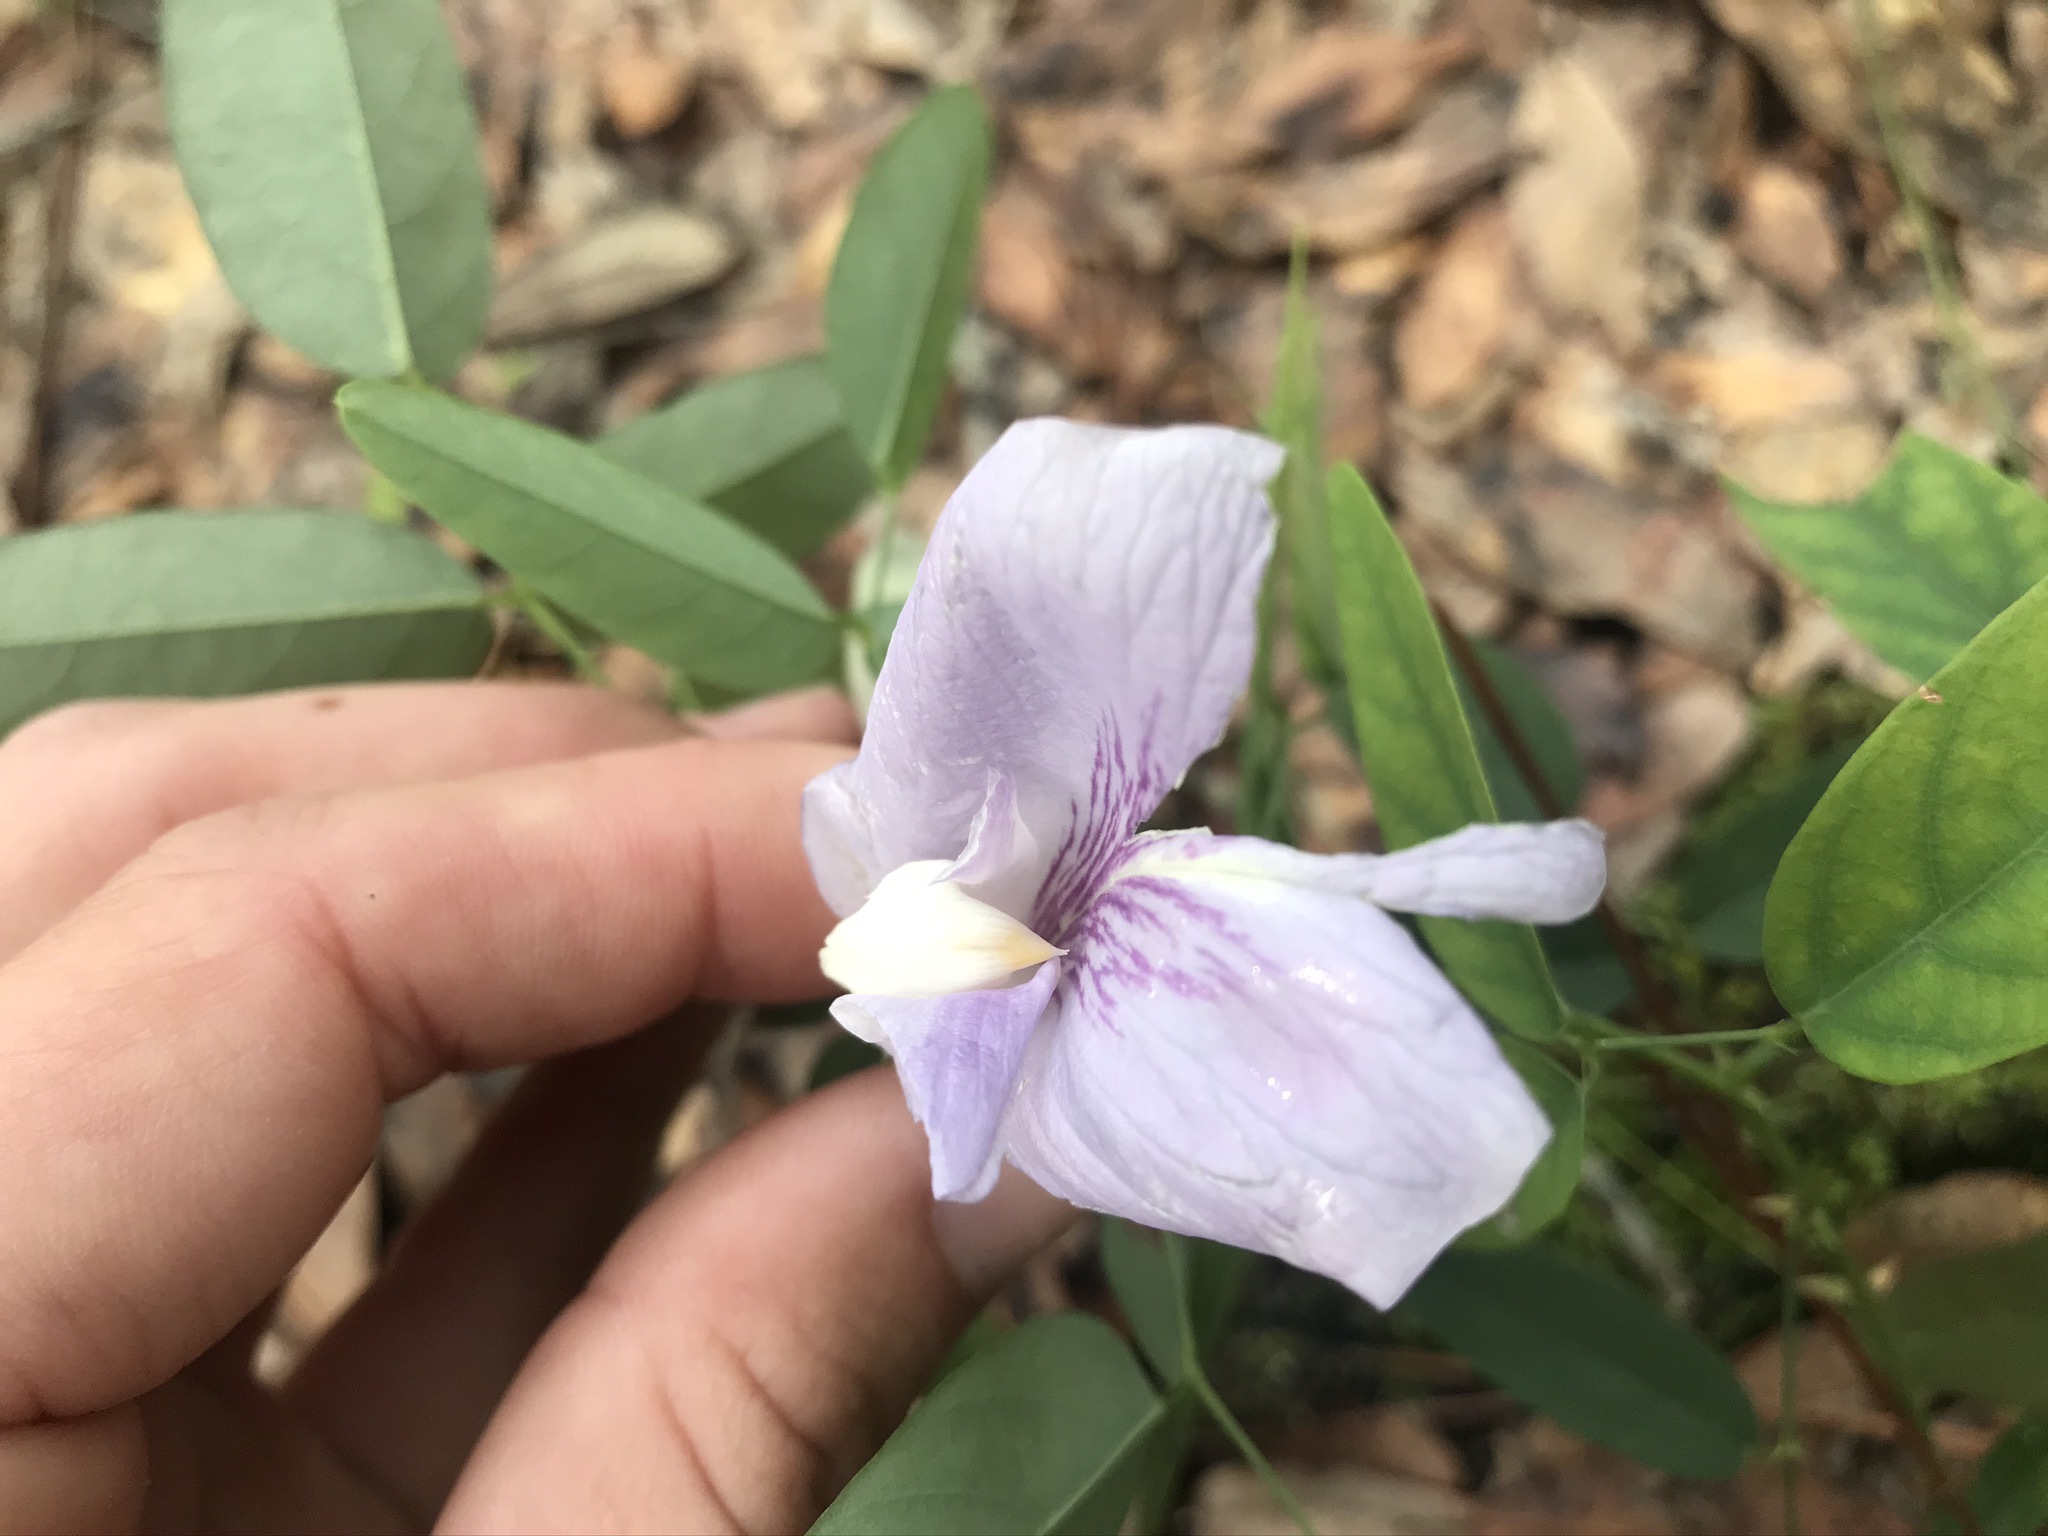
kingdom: Plantae
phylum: Tracheophyta
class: Magnoliopsida
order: Fabales
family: Fabaceae
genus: Clitoria
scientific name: Clitoria mariana
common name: Butterfly-pea
